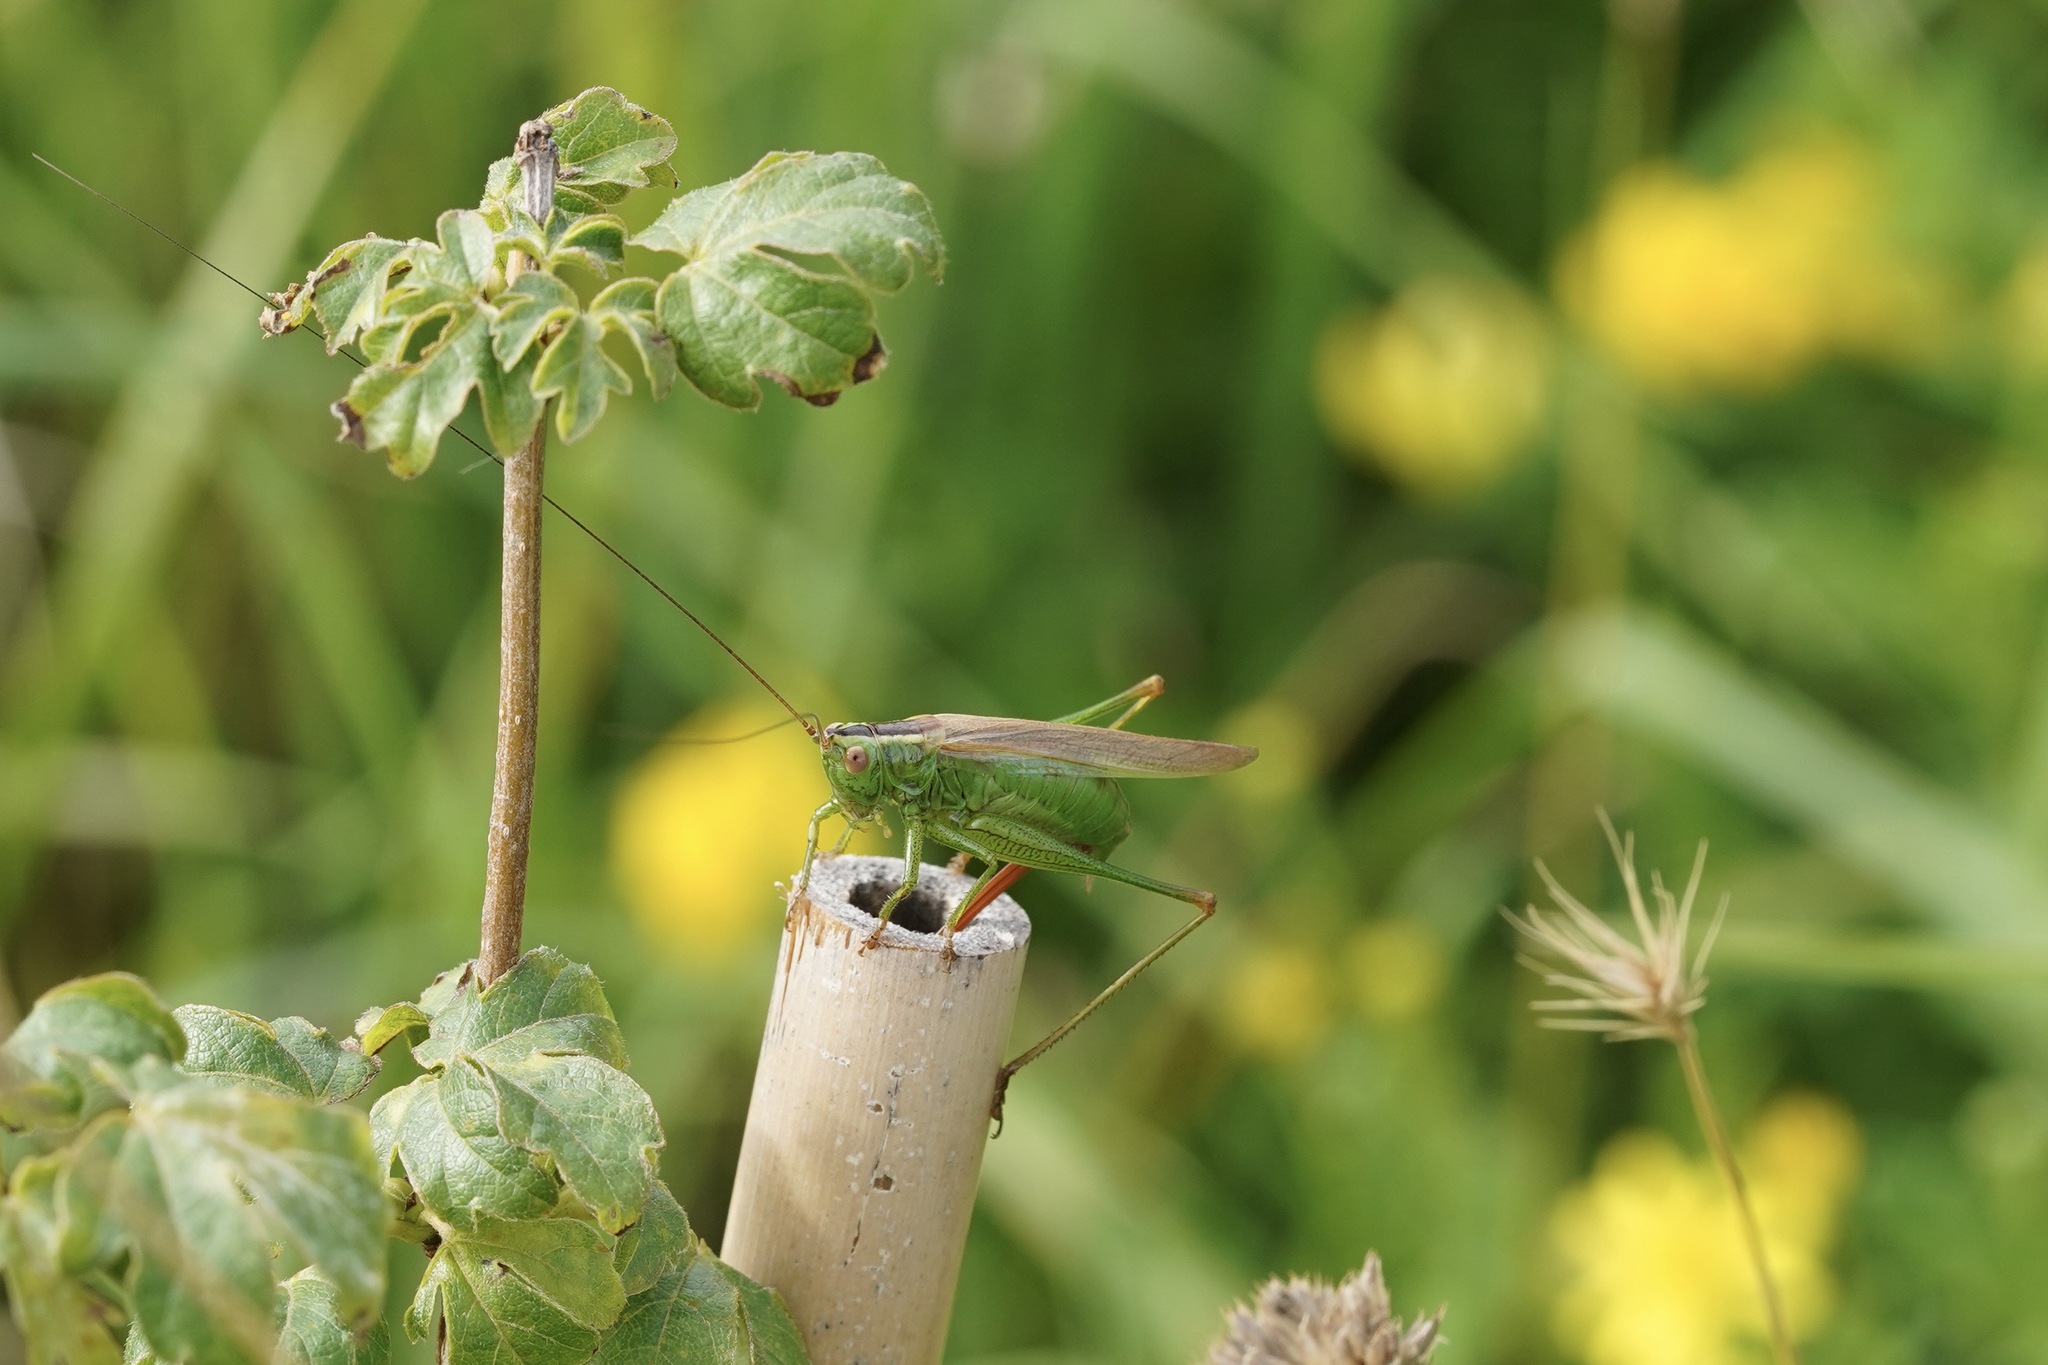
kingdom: Animalia
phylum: Arthropoda
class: Insecta
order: Orthoptera
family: Tettigoniidae
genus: Conocephalus
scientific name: Conocephalus fuscus
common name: Long-winged conehead
